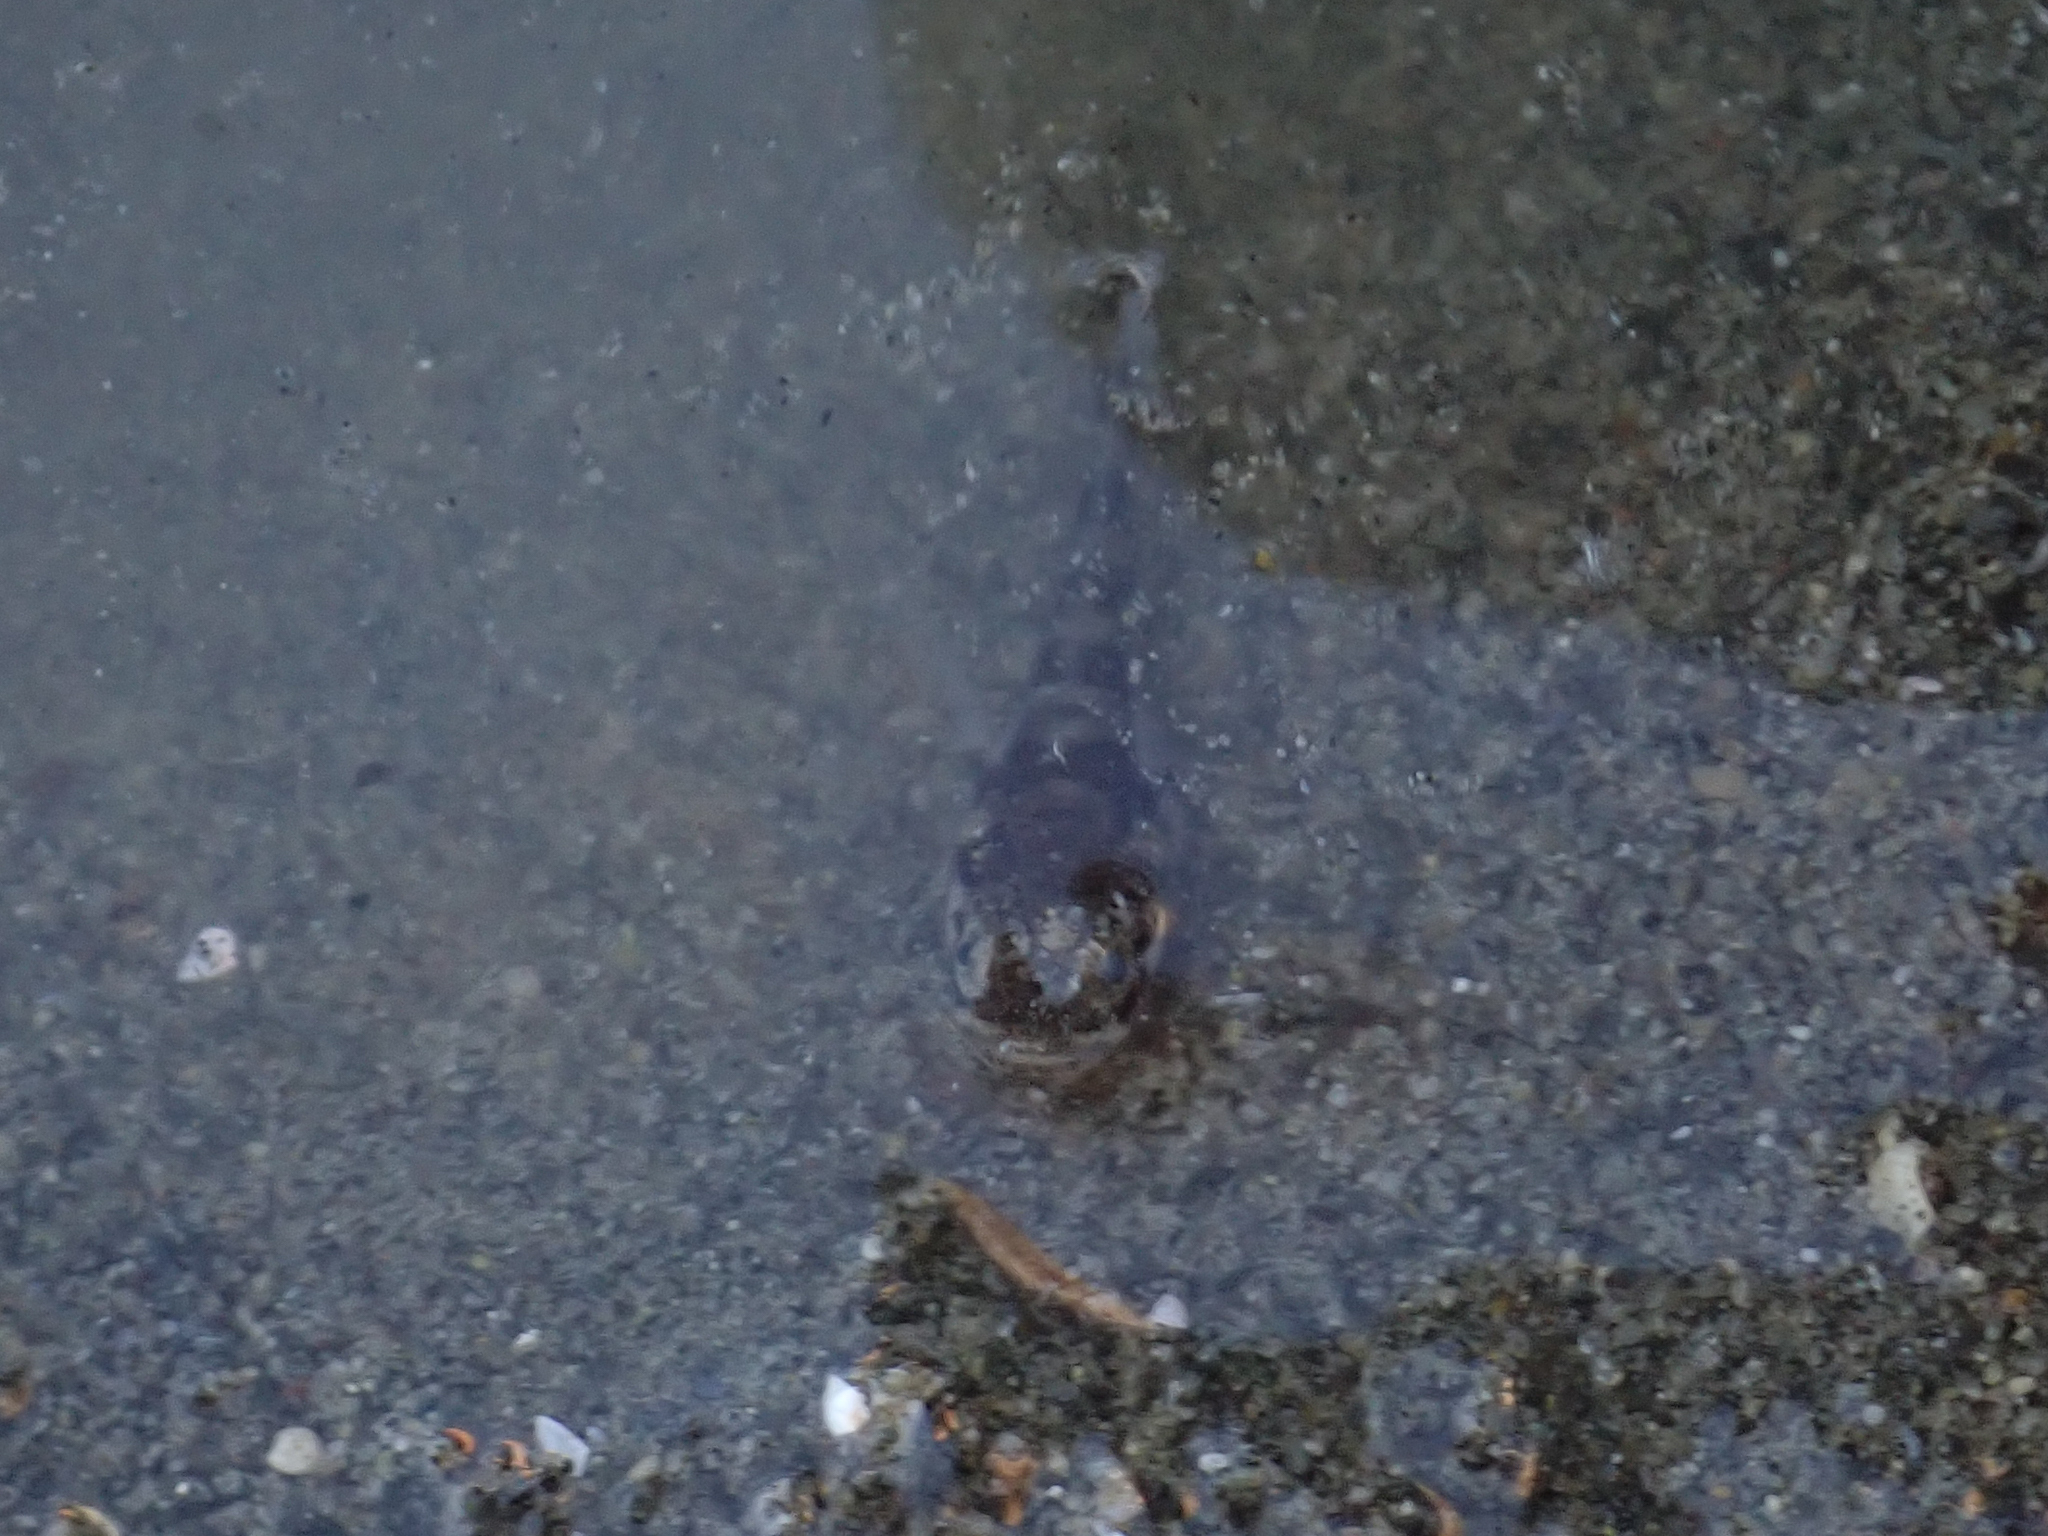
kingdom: Animalia
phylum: Chordata
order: Batrachoidiformes
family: Batrachoididae
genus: Porichthys
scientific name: Porichthys notatus
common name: Plainfin midshipman
